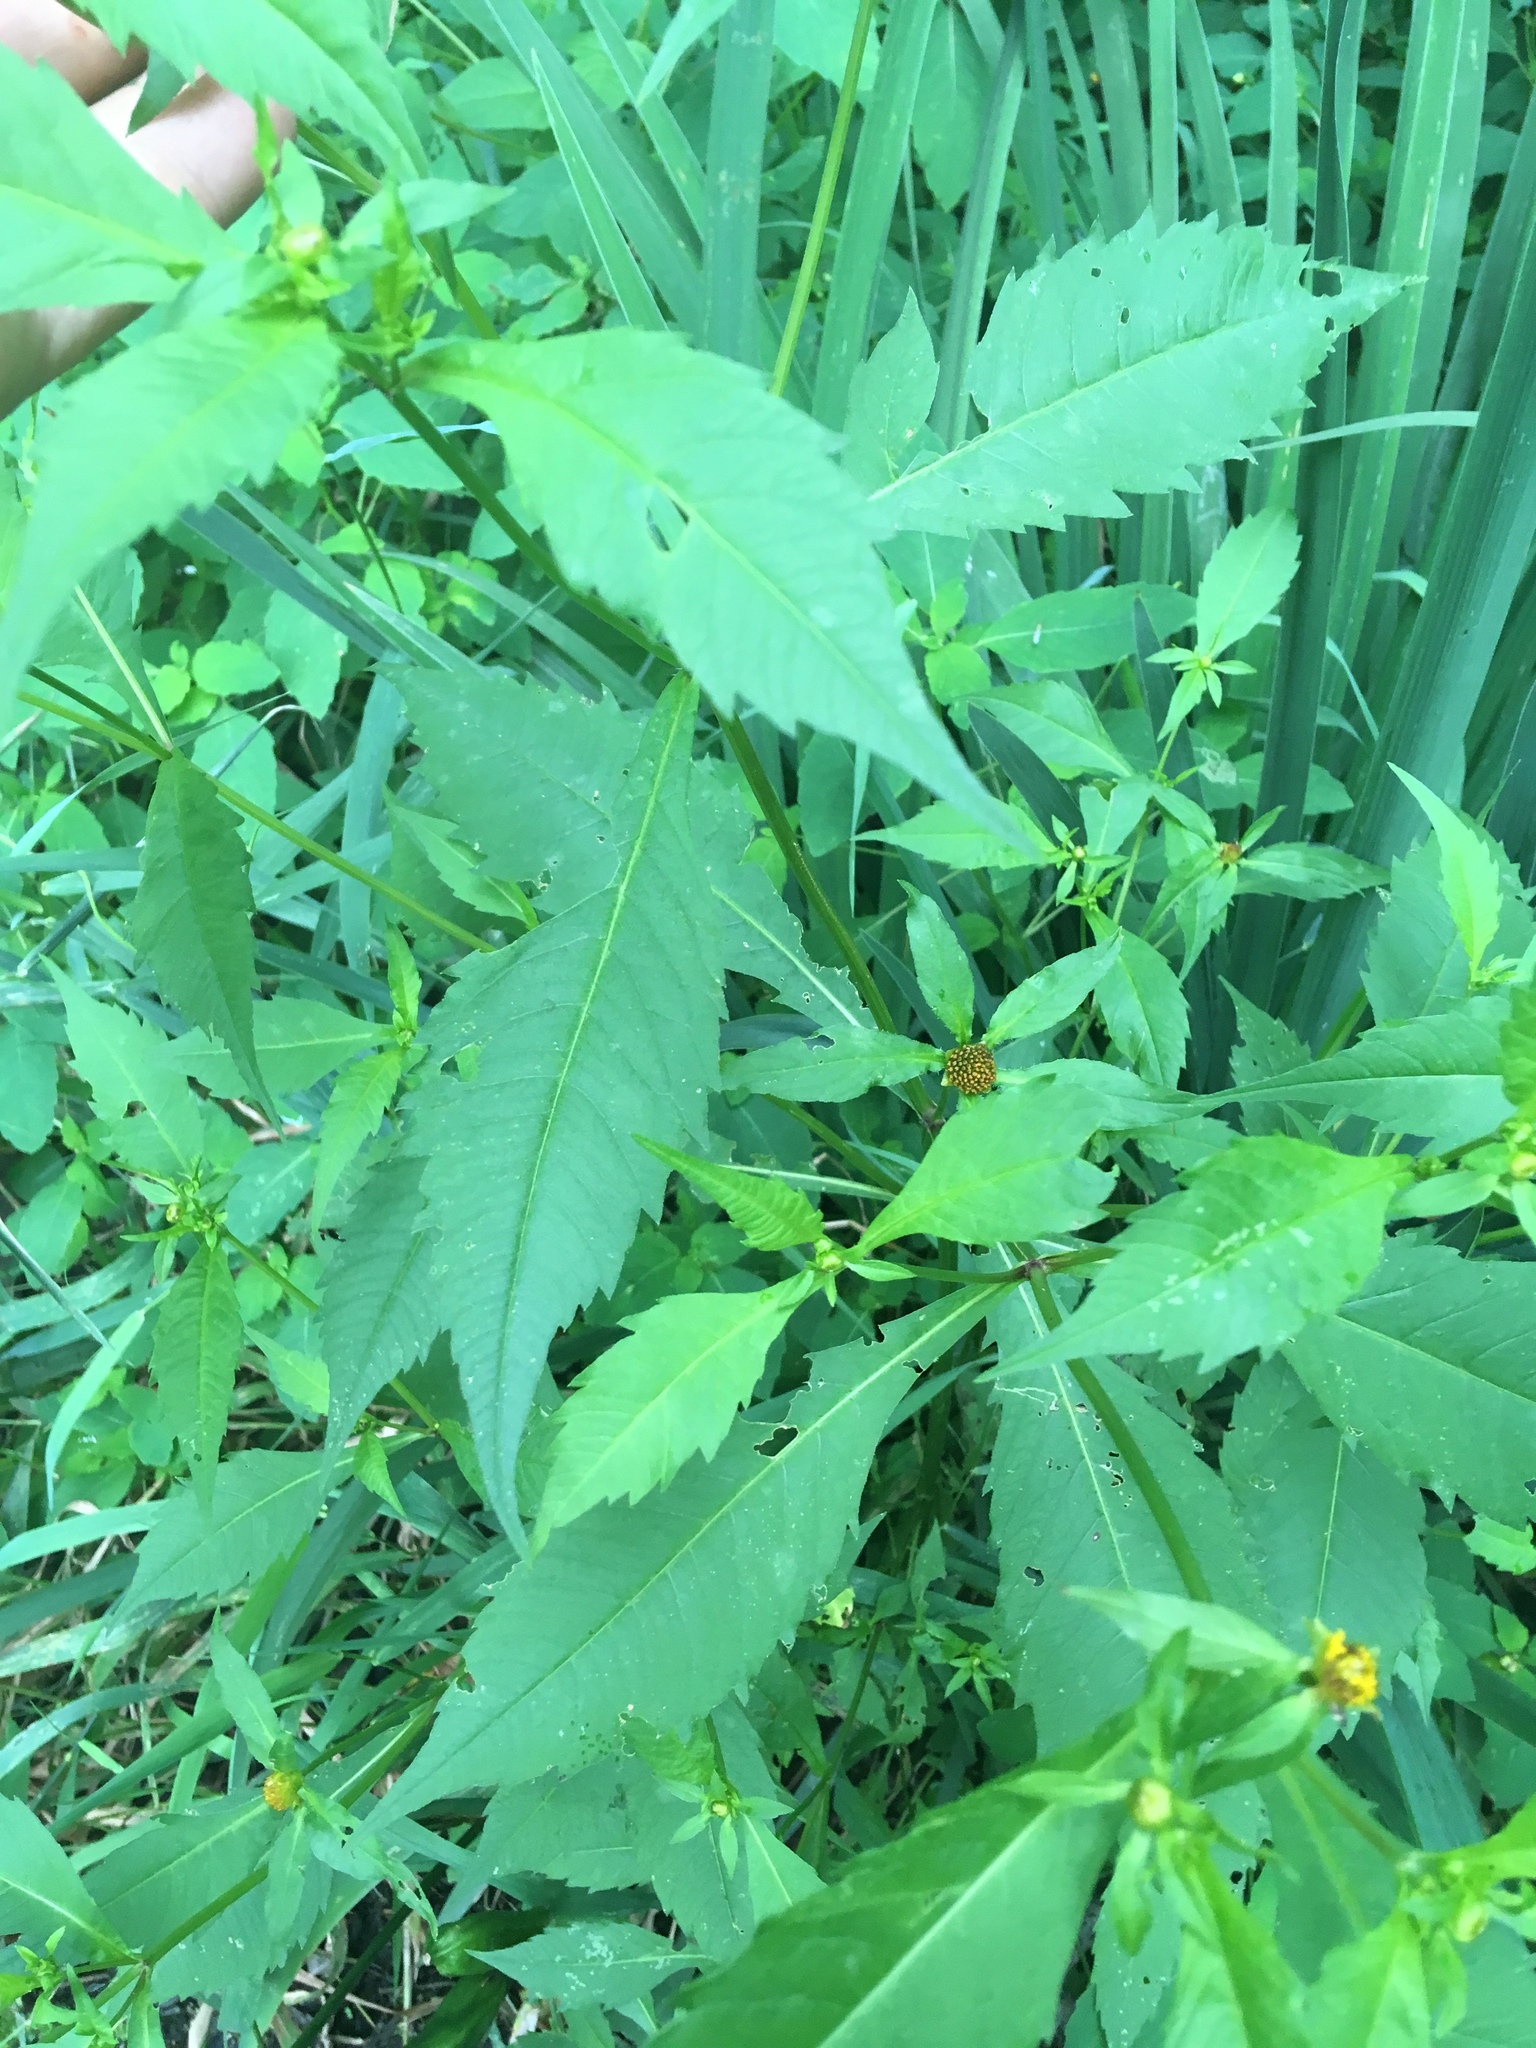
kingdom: Plantae
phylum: Tracheophyta
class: Magnoliopsida
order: Asterales
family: Asteraceae
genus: Bidens
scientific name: Bidens connata
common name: London bur-marigold
